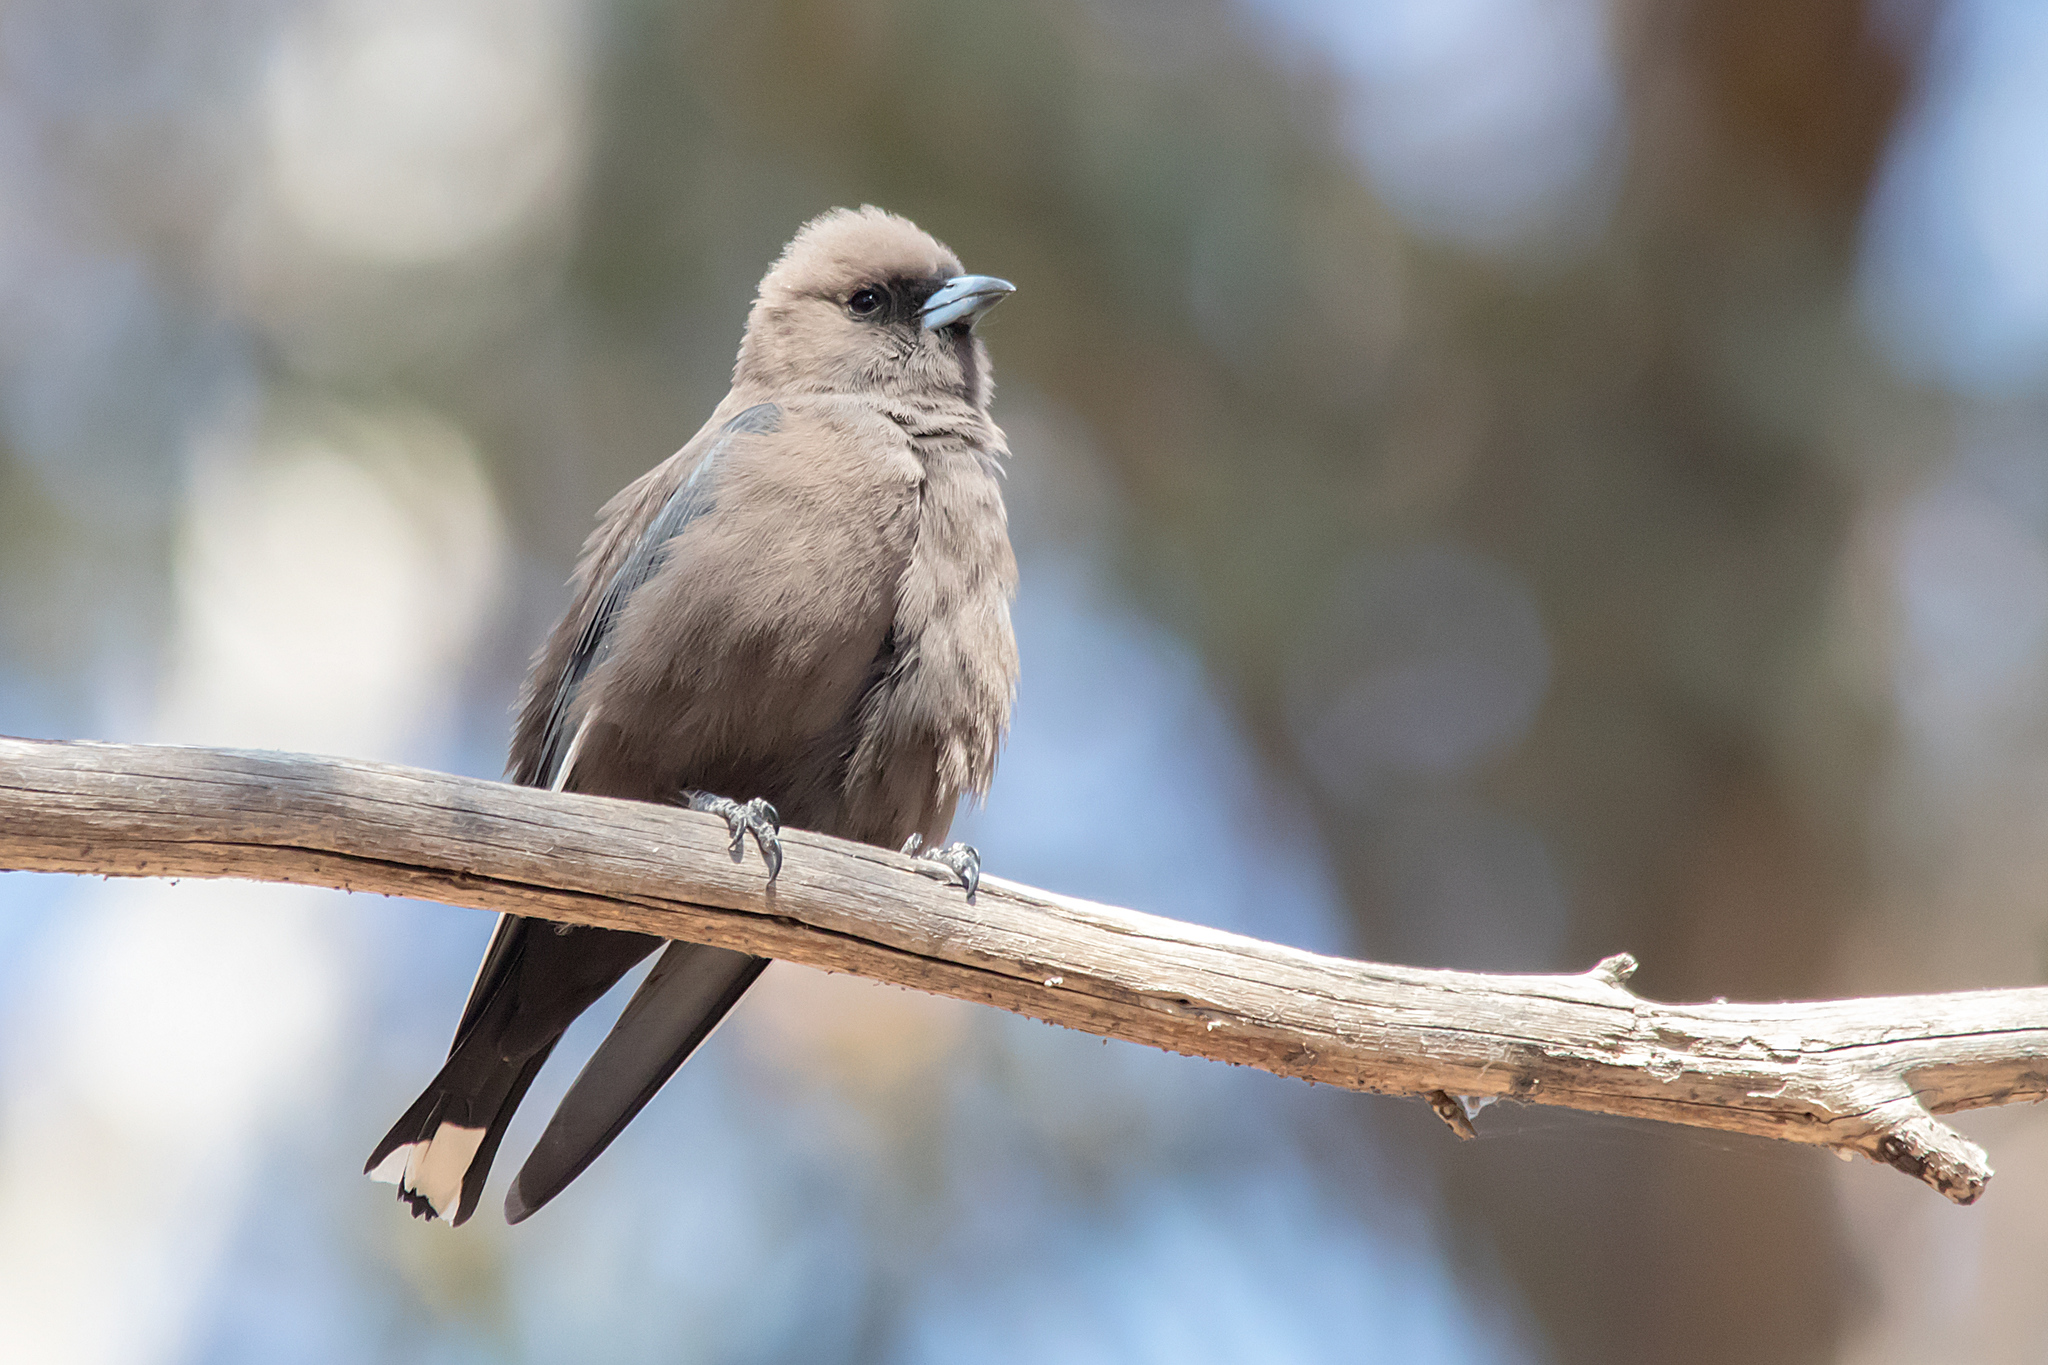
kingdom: Animalia
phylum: Chordata
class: Aves
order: Passeriformes
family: Artamidae
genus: Artamus
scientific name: Artamus cyanopterus
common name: Dusky woodswallow
